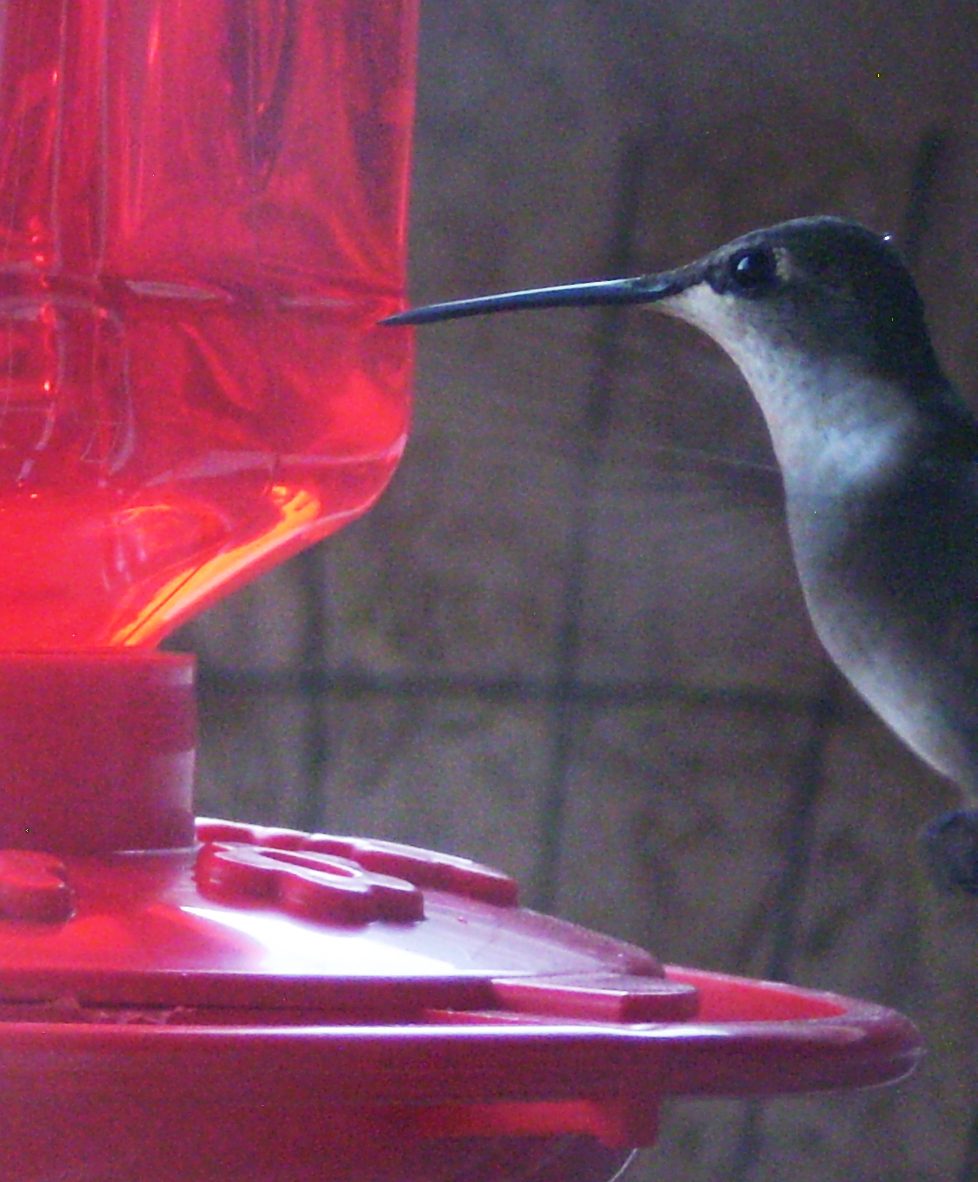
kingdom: Animalia
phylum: Chordata
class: Aves
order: Apodiformes
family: Trochilidae
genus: Archilochus
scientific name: Archilochus colubris
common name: Ruby-throated hummingbird
